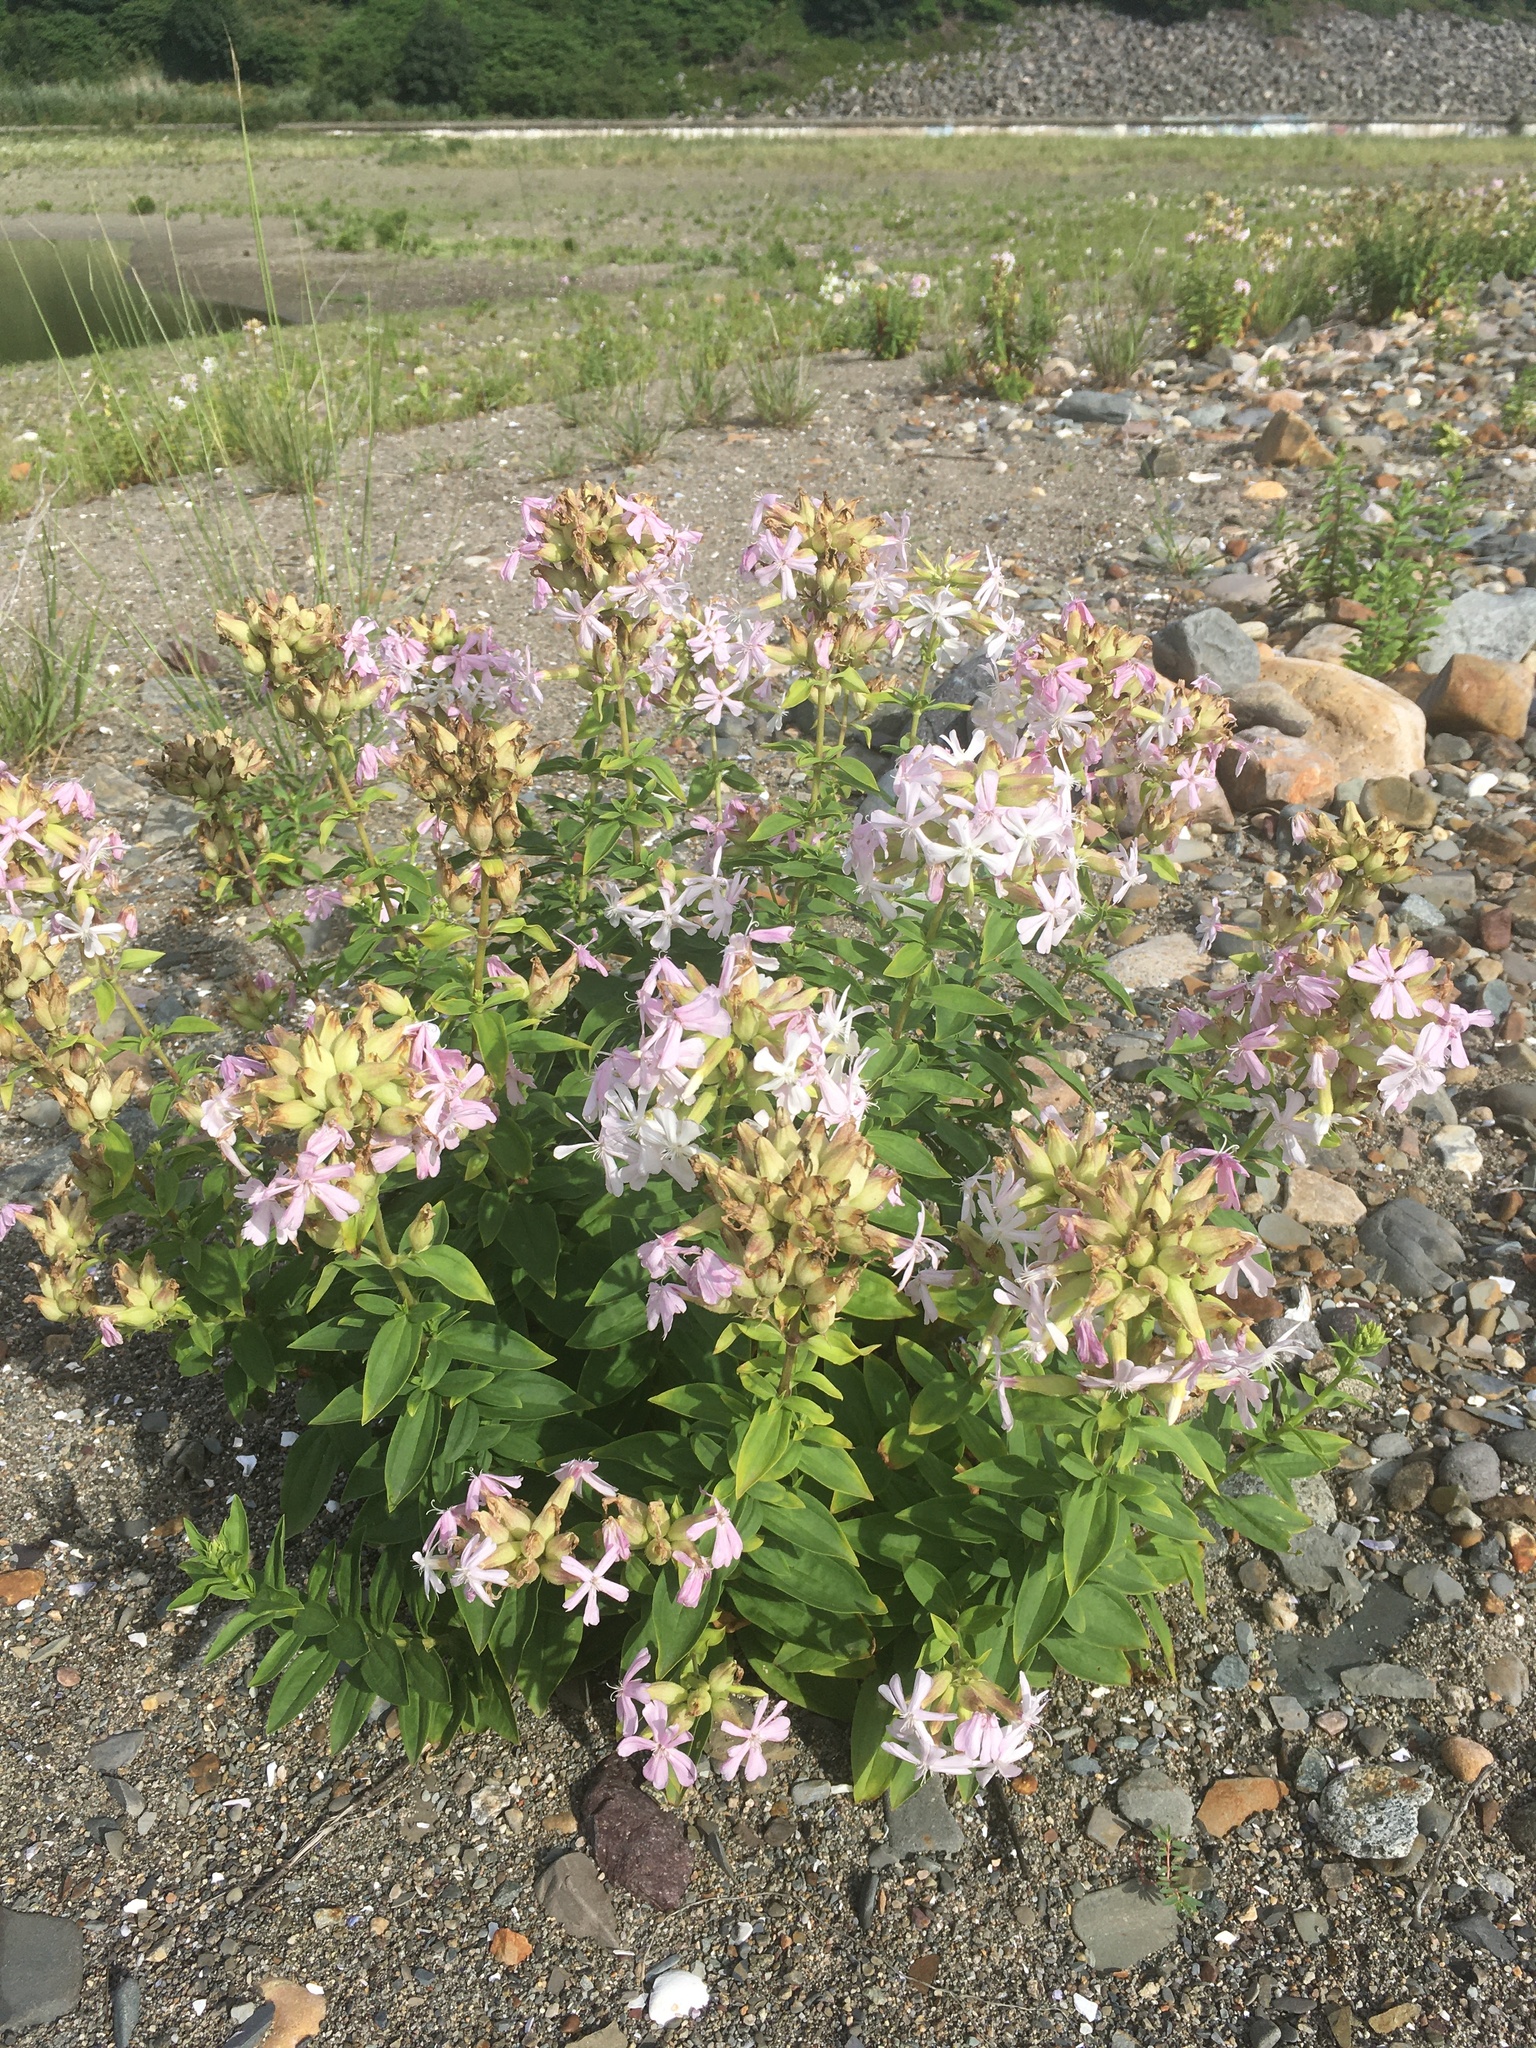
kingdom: Plantae
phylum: Tracheophyta
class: Magnoliopsida
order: Caryophyllales
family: Caryophyllaceae
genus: Saponaria
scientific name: Saponaria officinalis
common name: Soapwort
